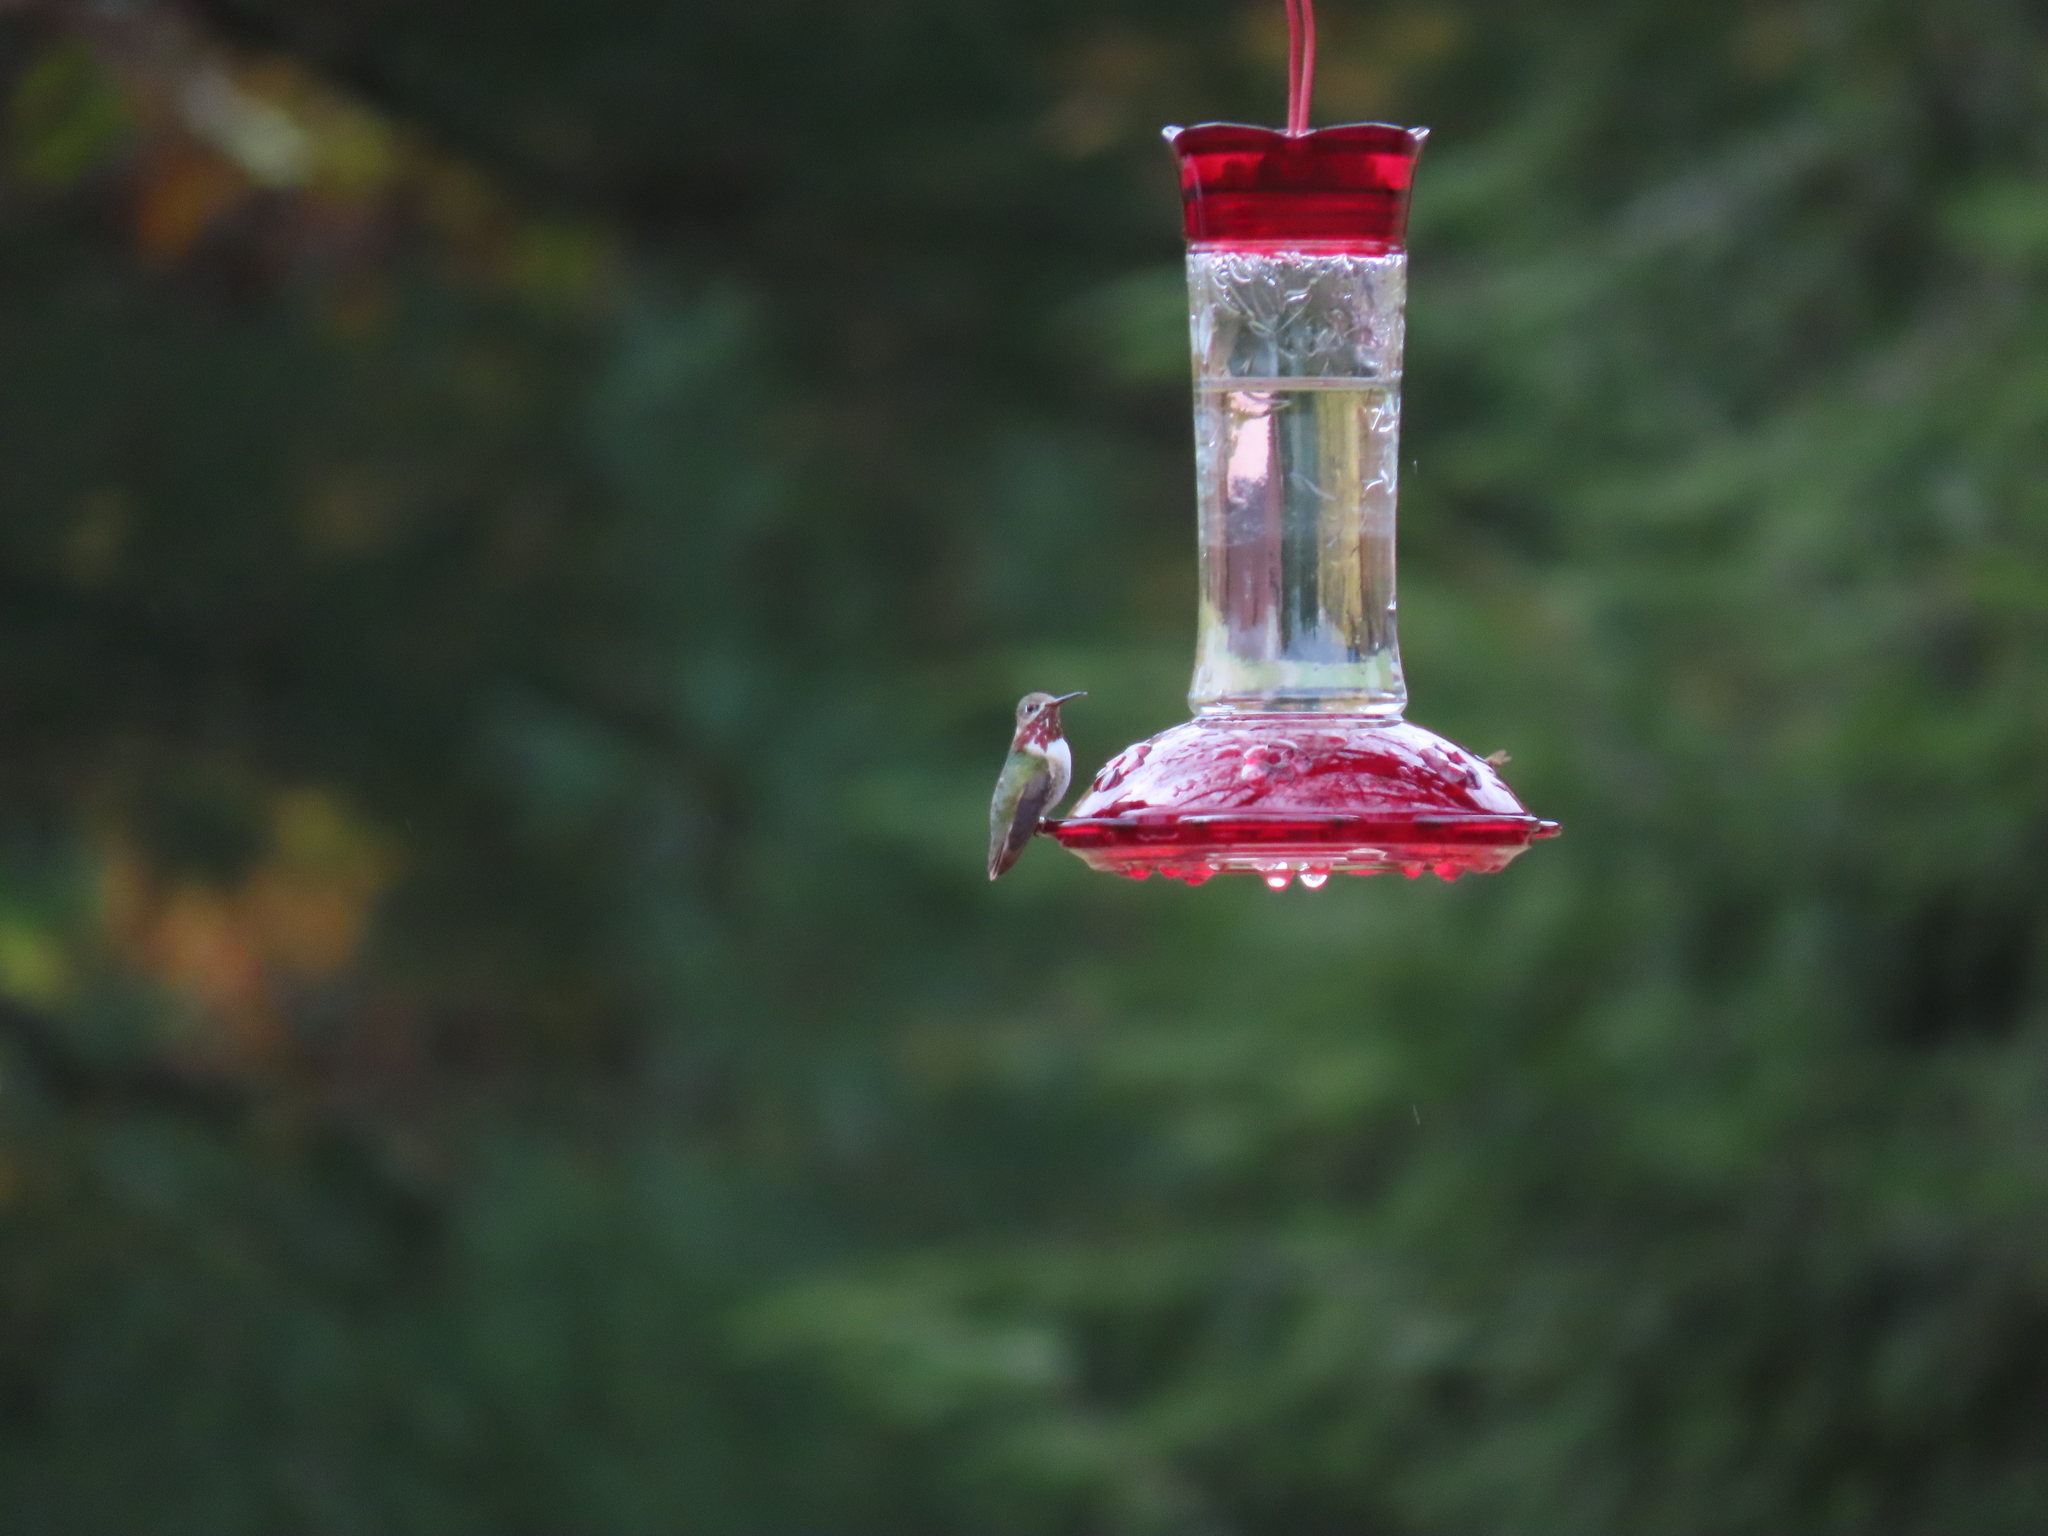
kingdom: Animalia
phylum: Chordata
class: Aves
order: Apodiformes
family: Trochilidae
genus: Selasphorus
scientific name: Selasphorus calliope
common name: Calliope hummingbird
